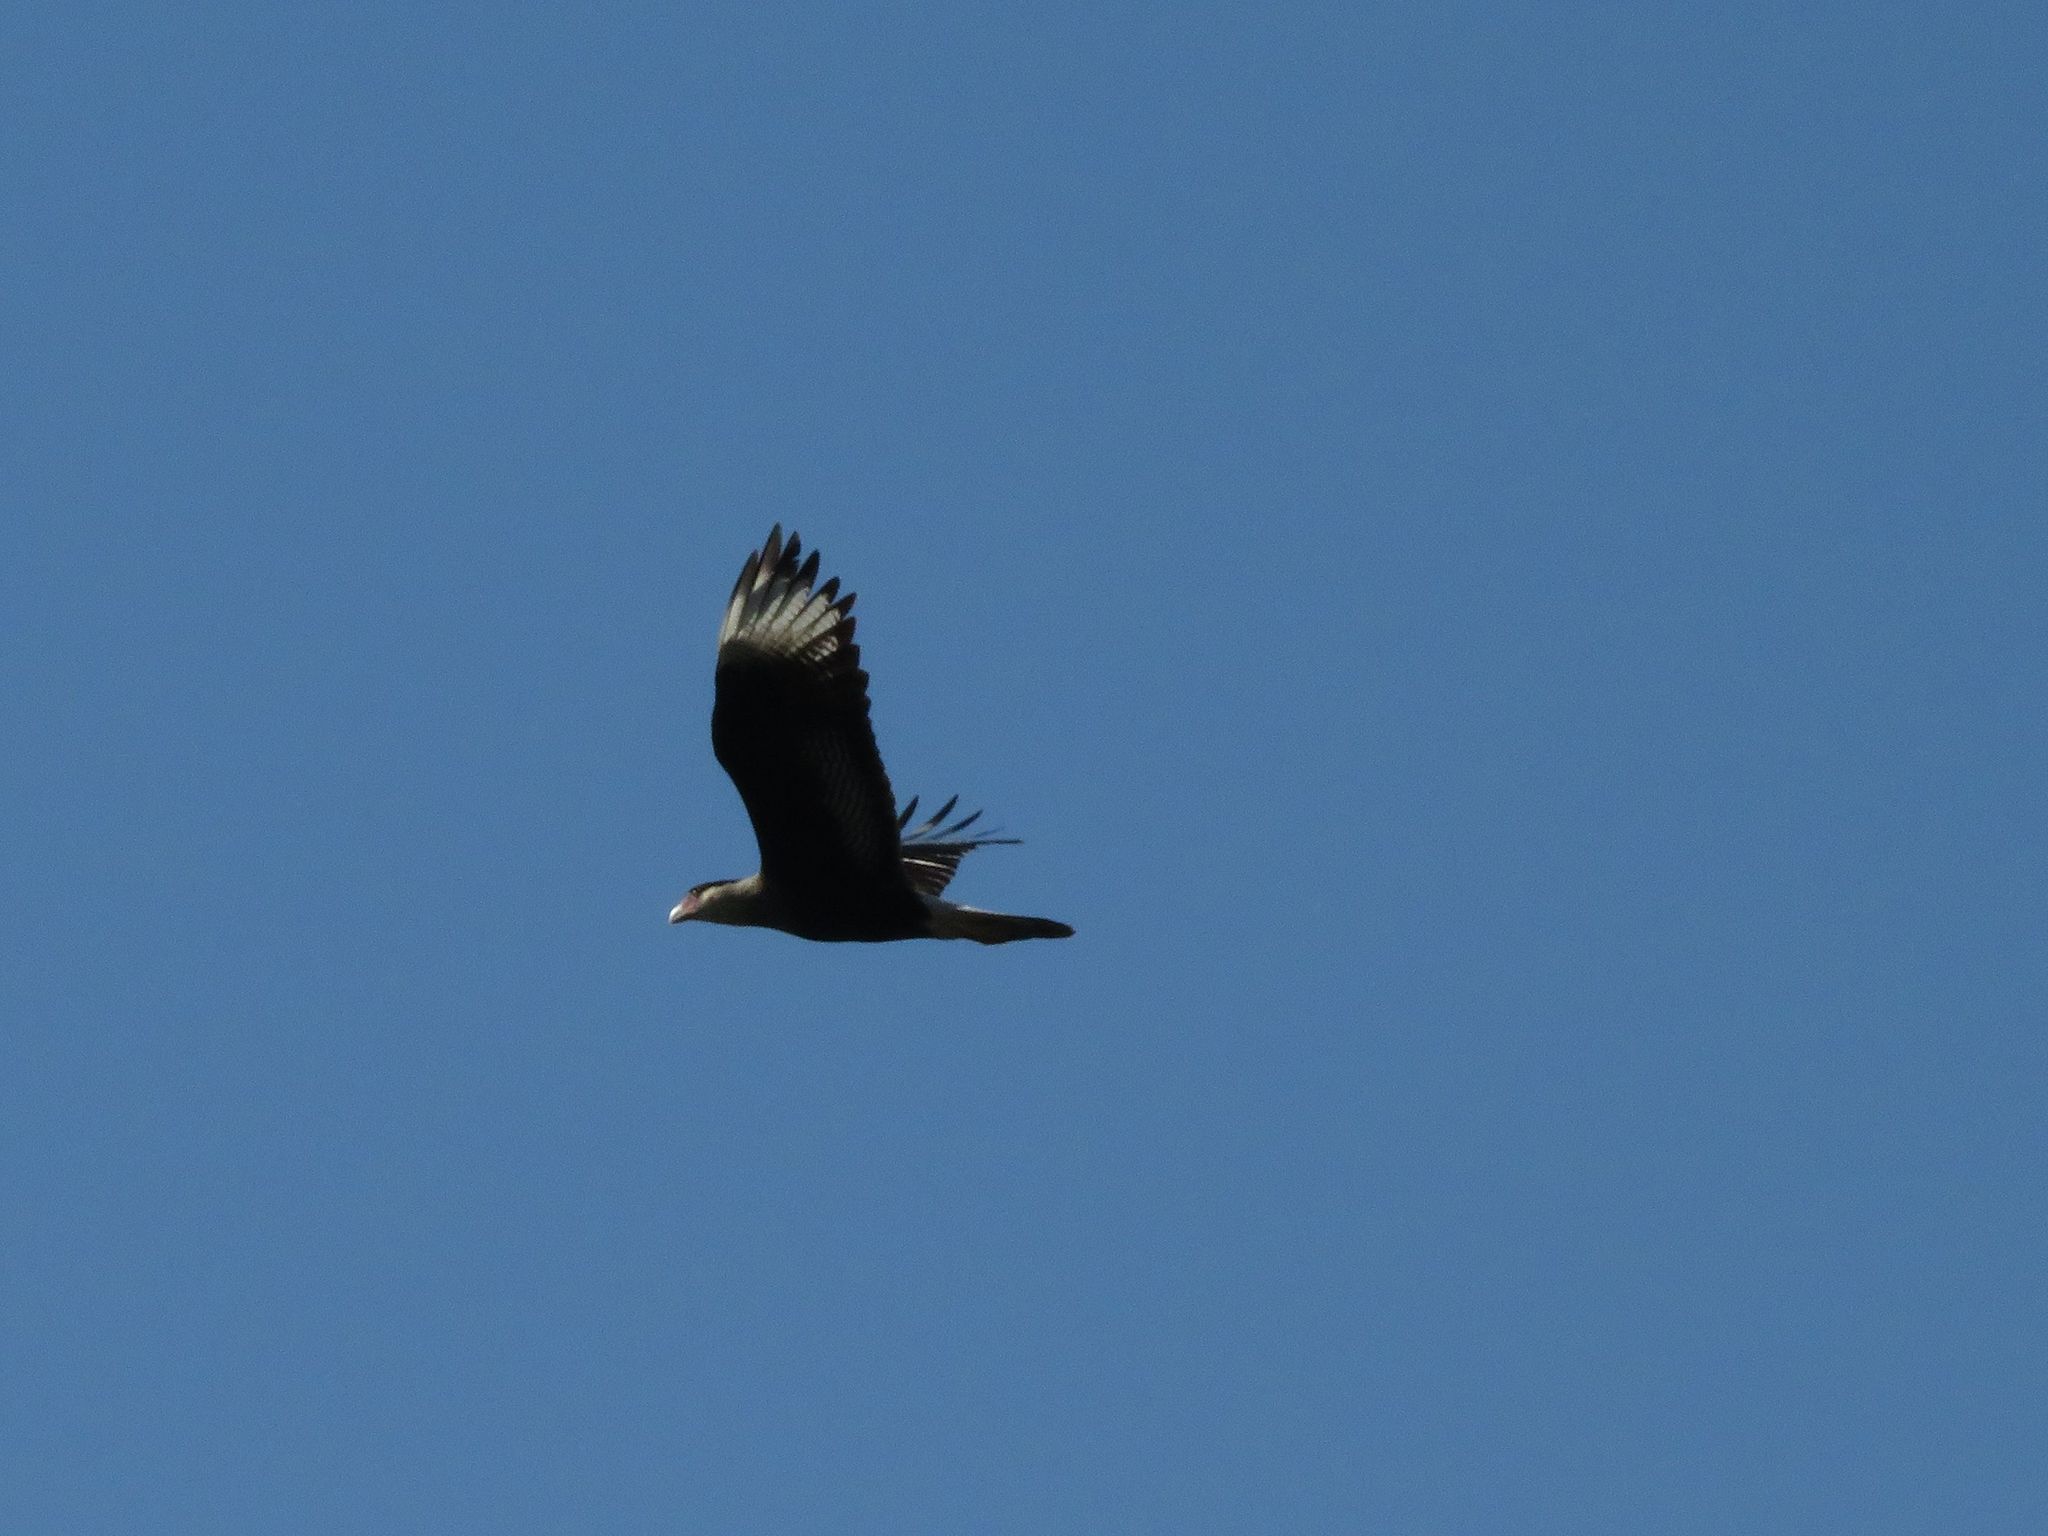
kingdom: Animalia
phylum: Chordata
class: Aves
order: Falconiformes
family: Falconidae
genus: Caracara
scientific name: Caracara plancus
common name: Southern caracara
